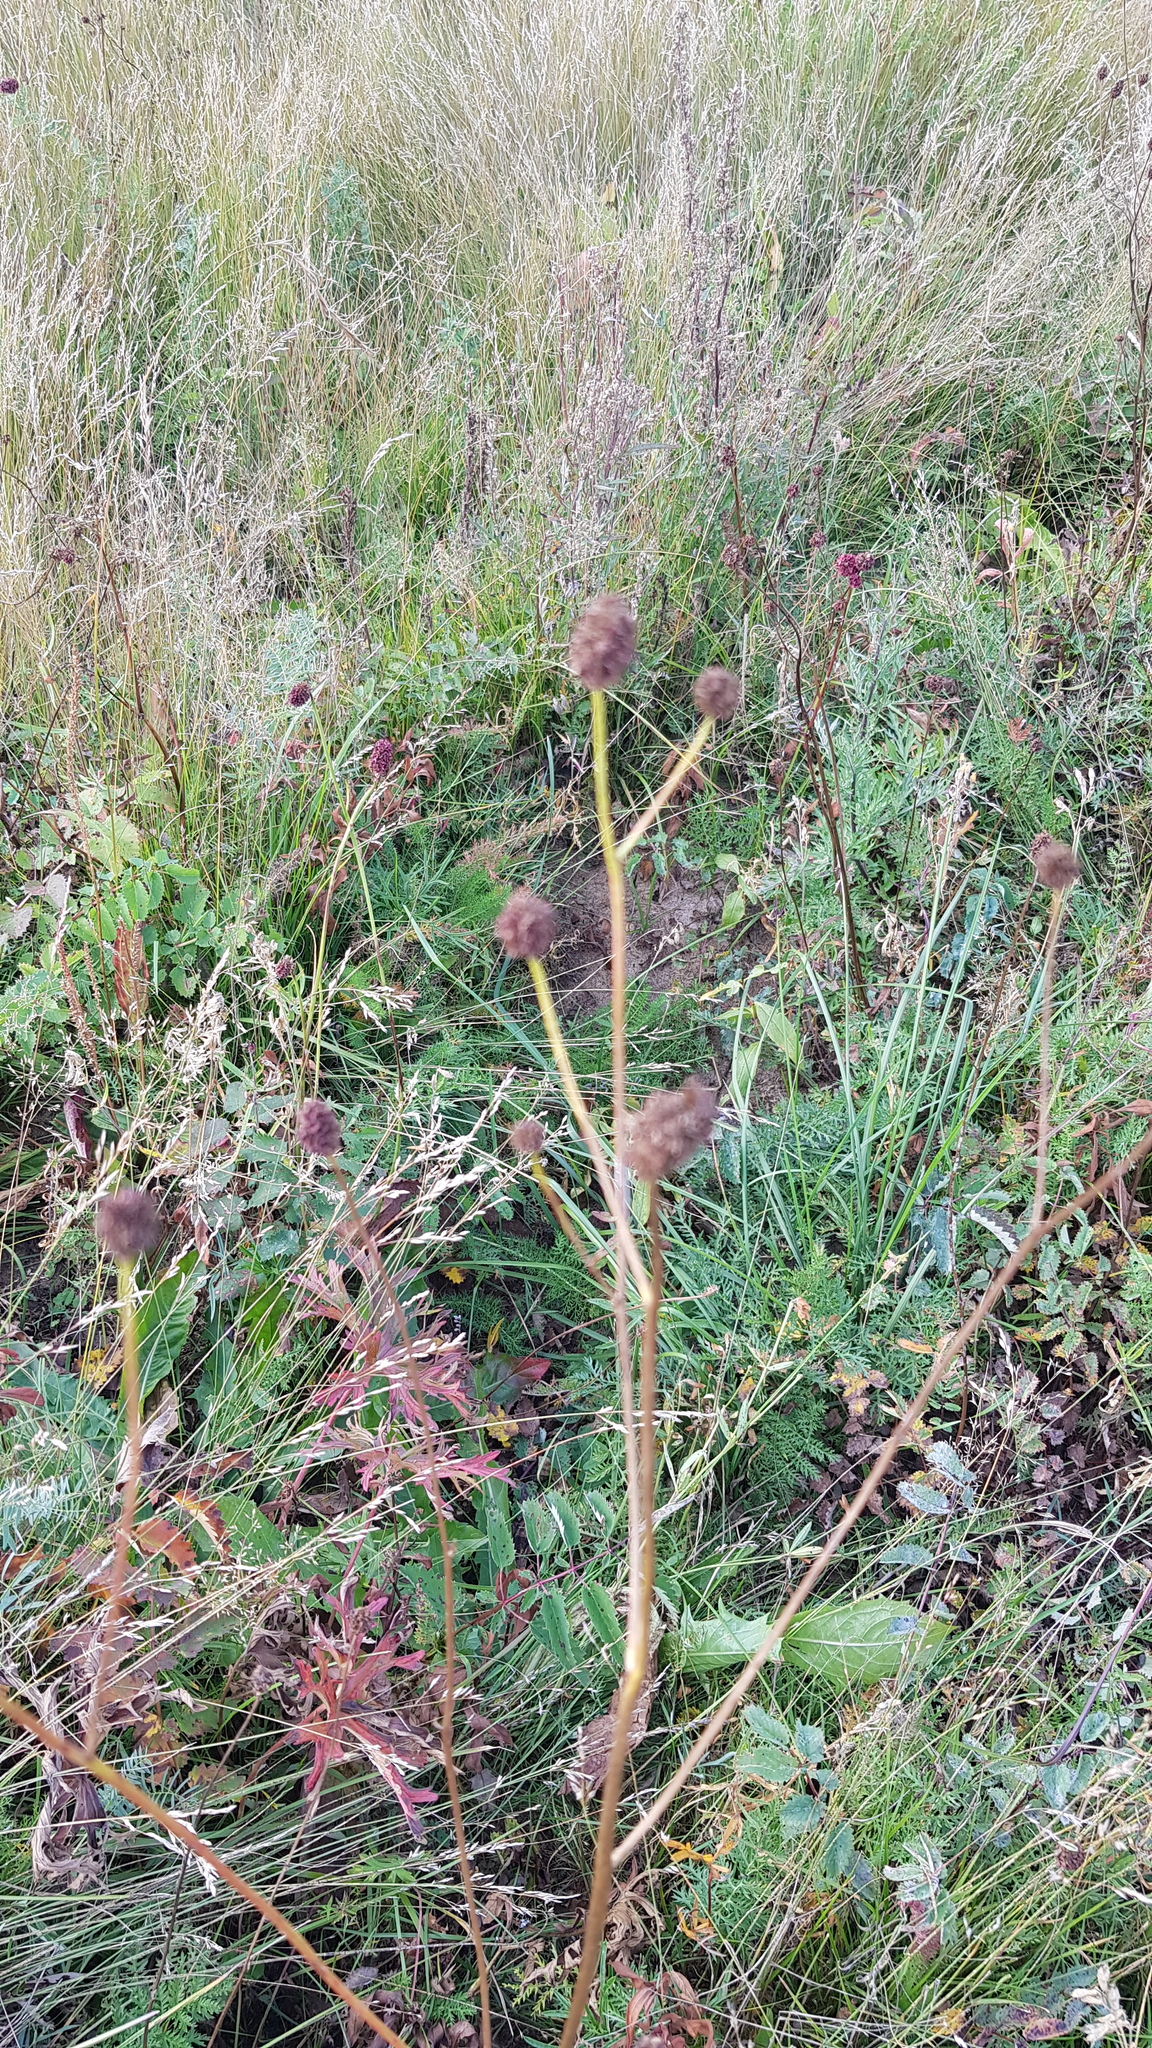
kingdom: Plantae
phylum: Tracheophyta
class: Magnoliopsida
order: Rosales
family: Rosaceae
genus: Sanguisorba
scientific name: Sanguisorba officinalis
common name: Great burnet
